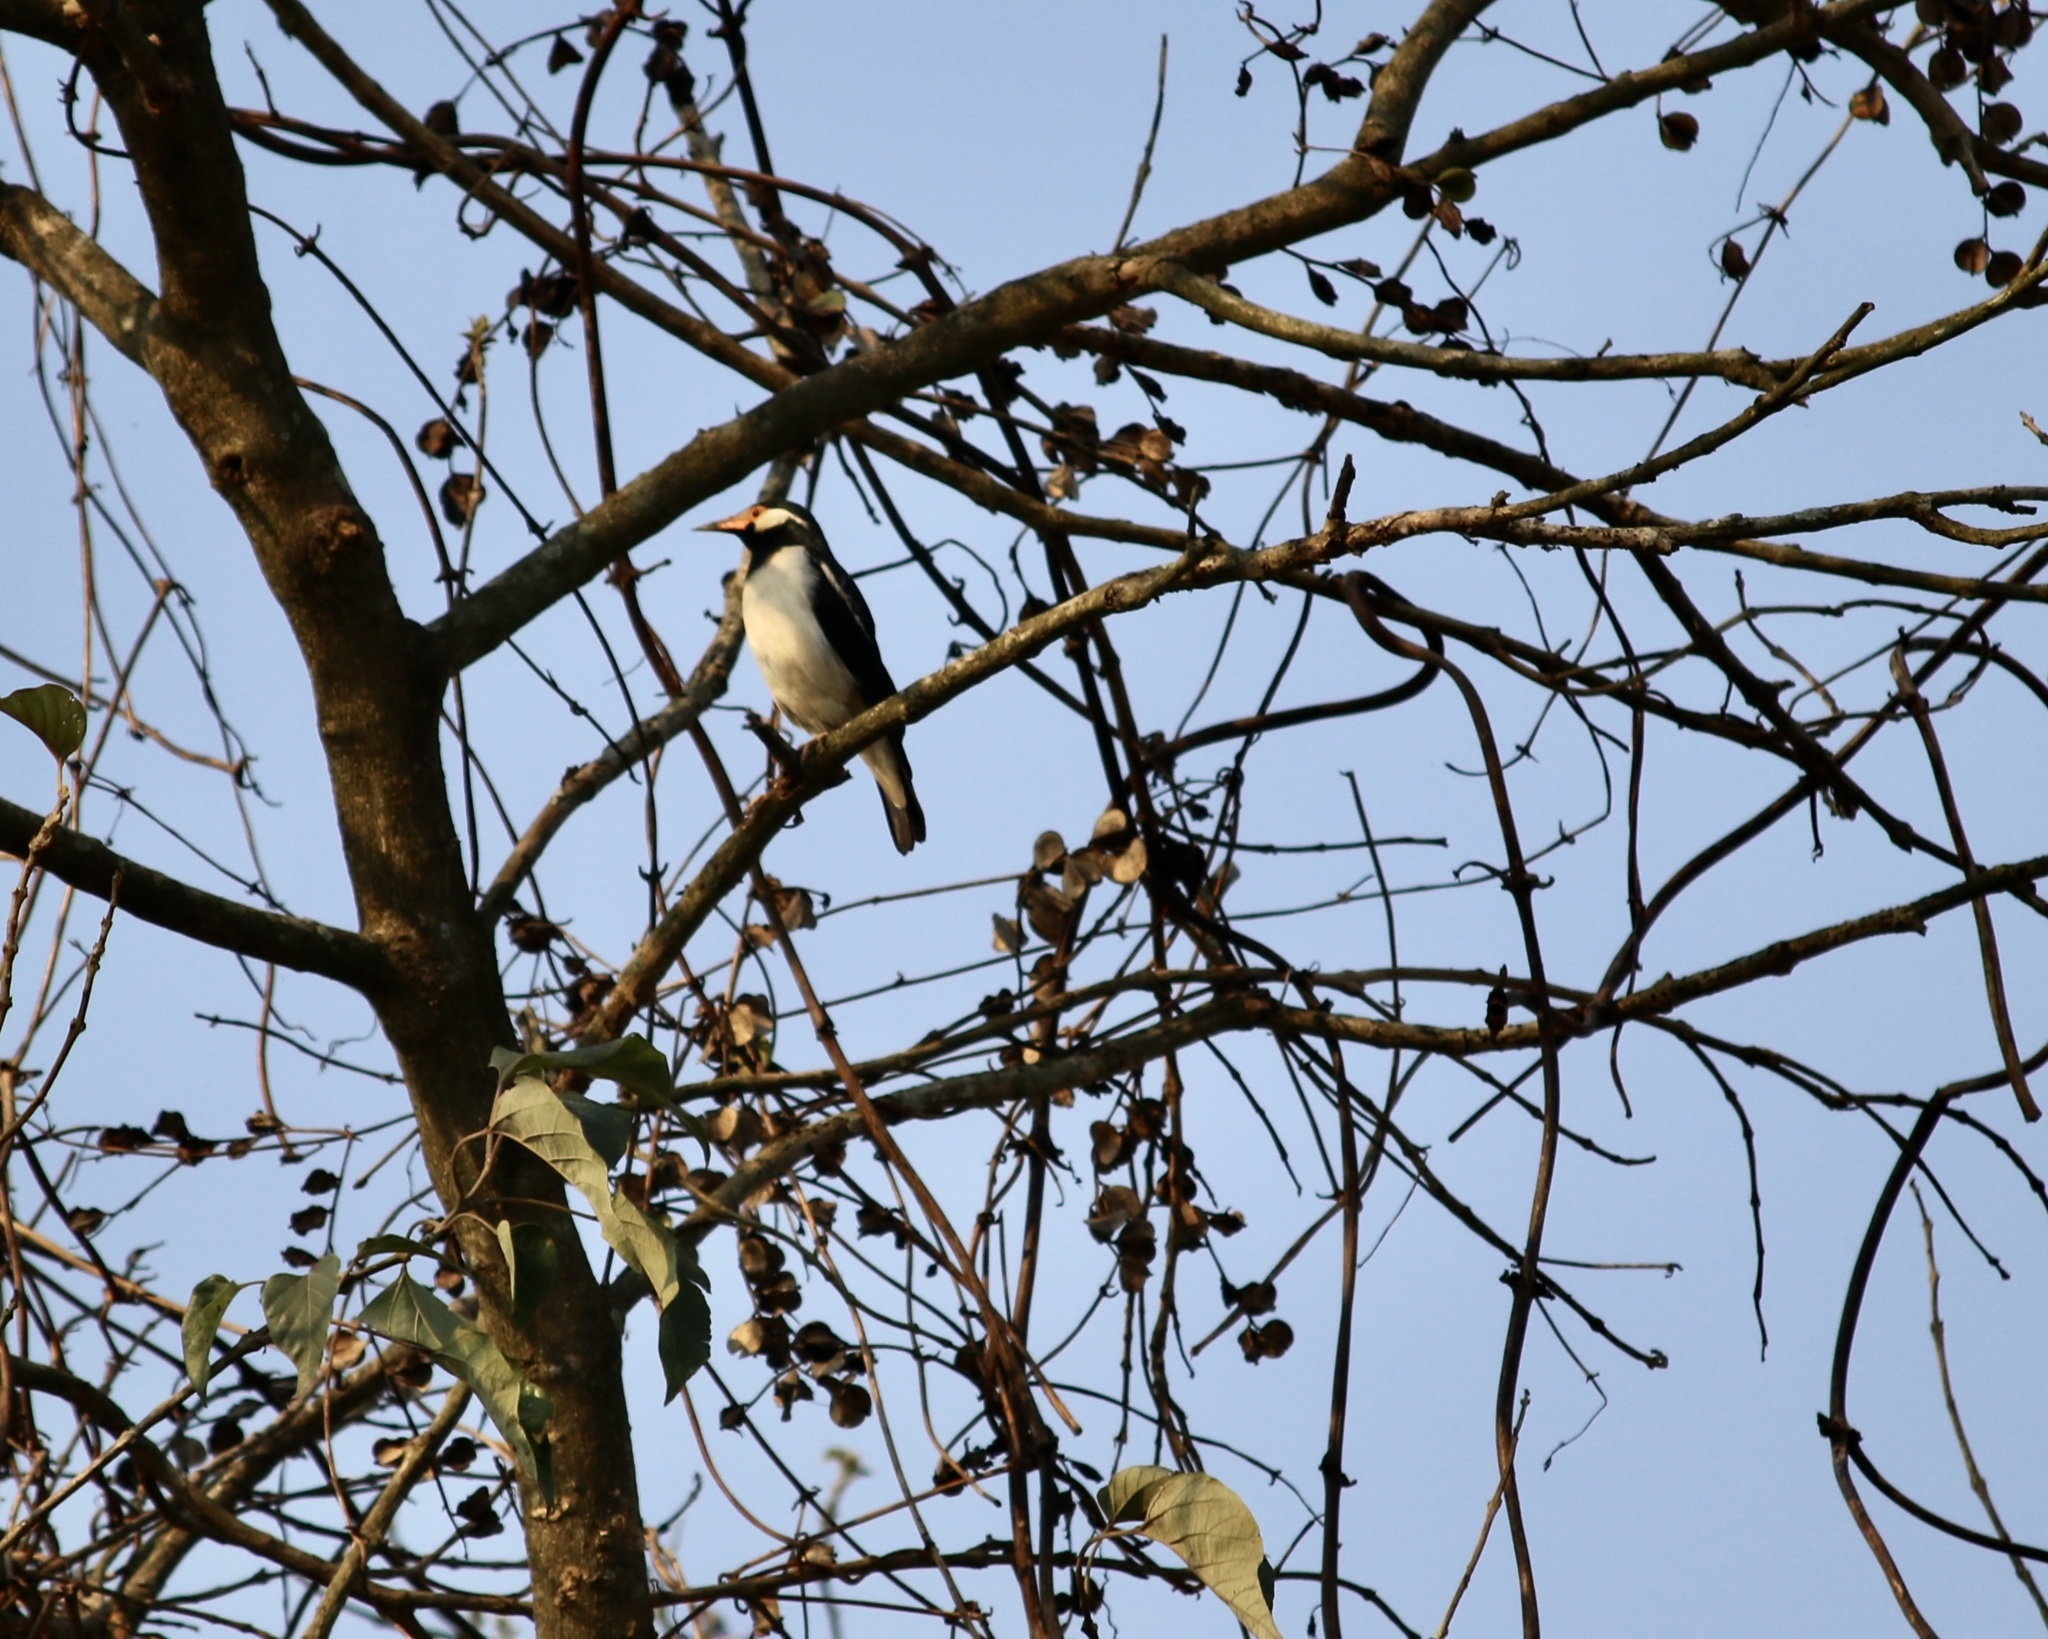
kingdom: Animalia
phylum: Chordata
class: Aves
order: Passeriformes
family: Sturnidae
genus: Gracupica
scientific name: Gracupica contra
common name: Pied myna
